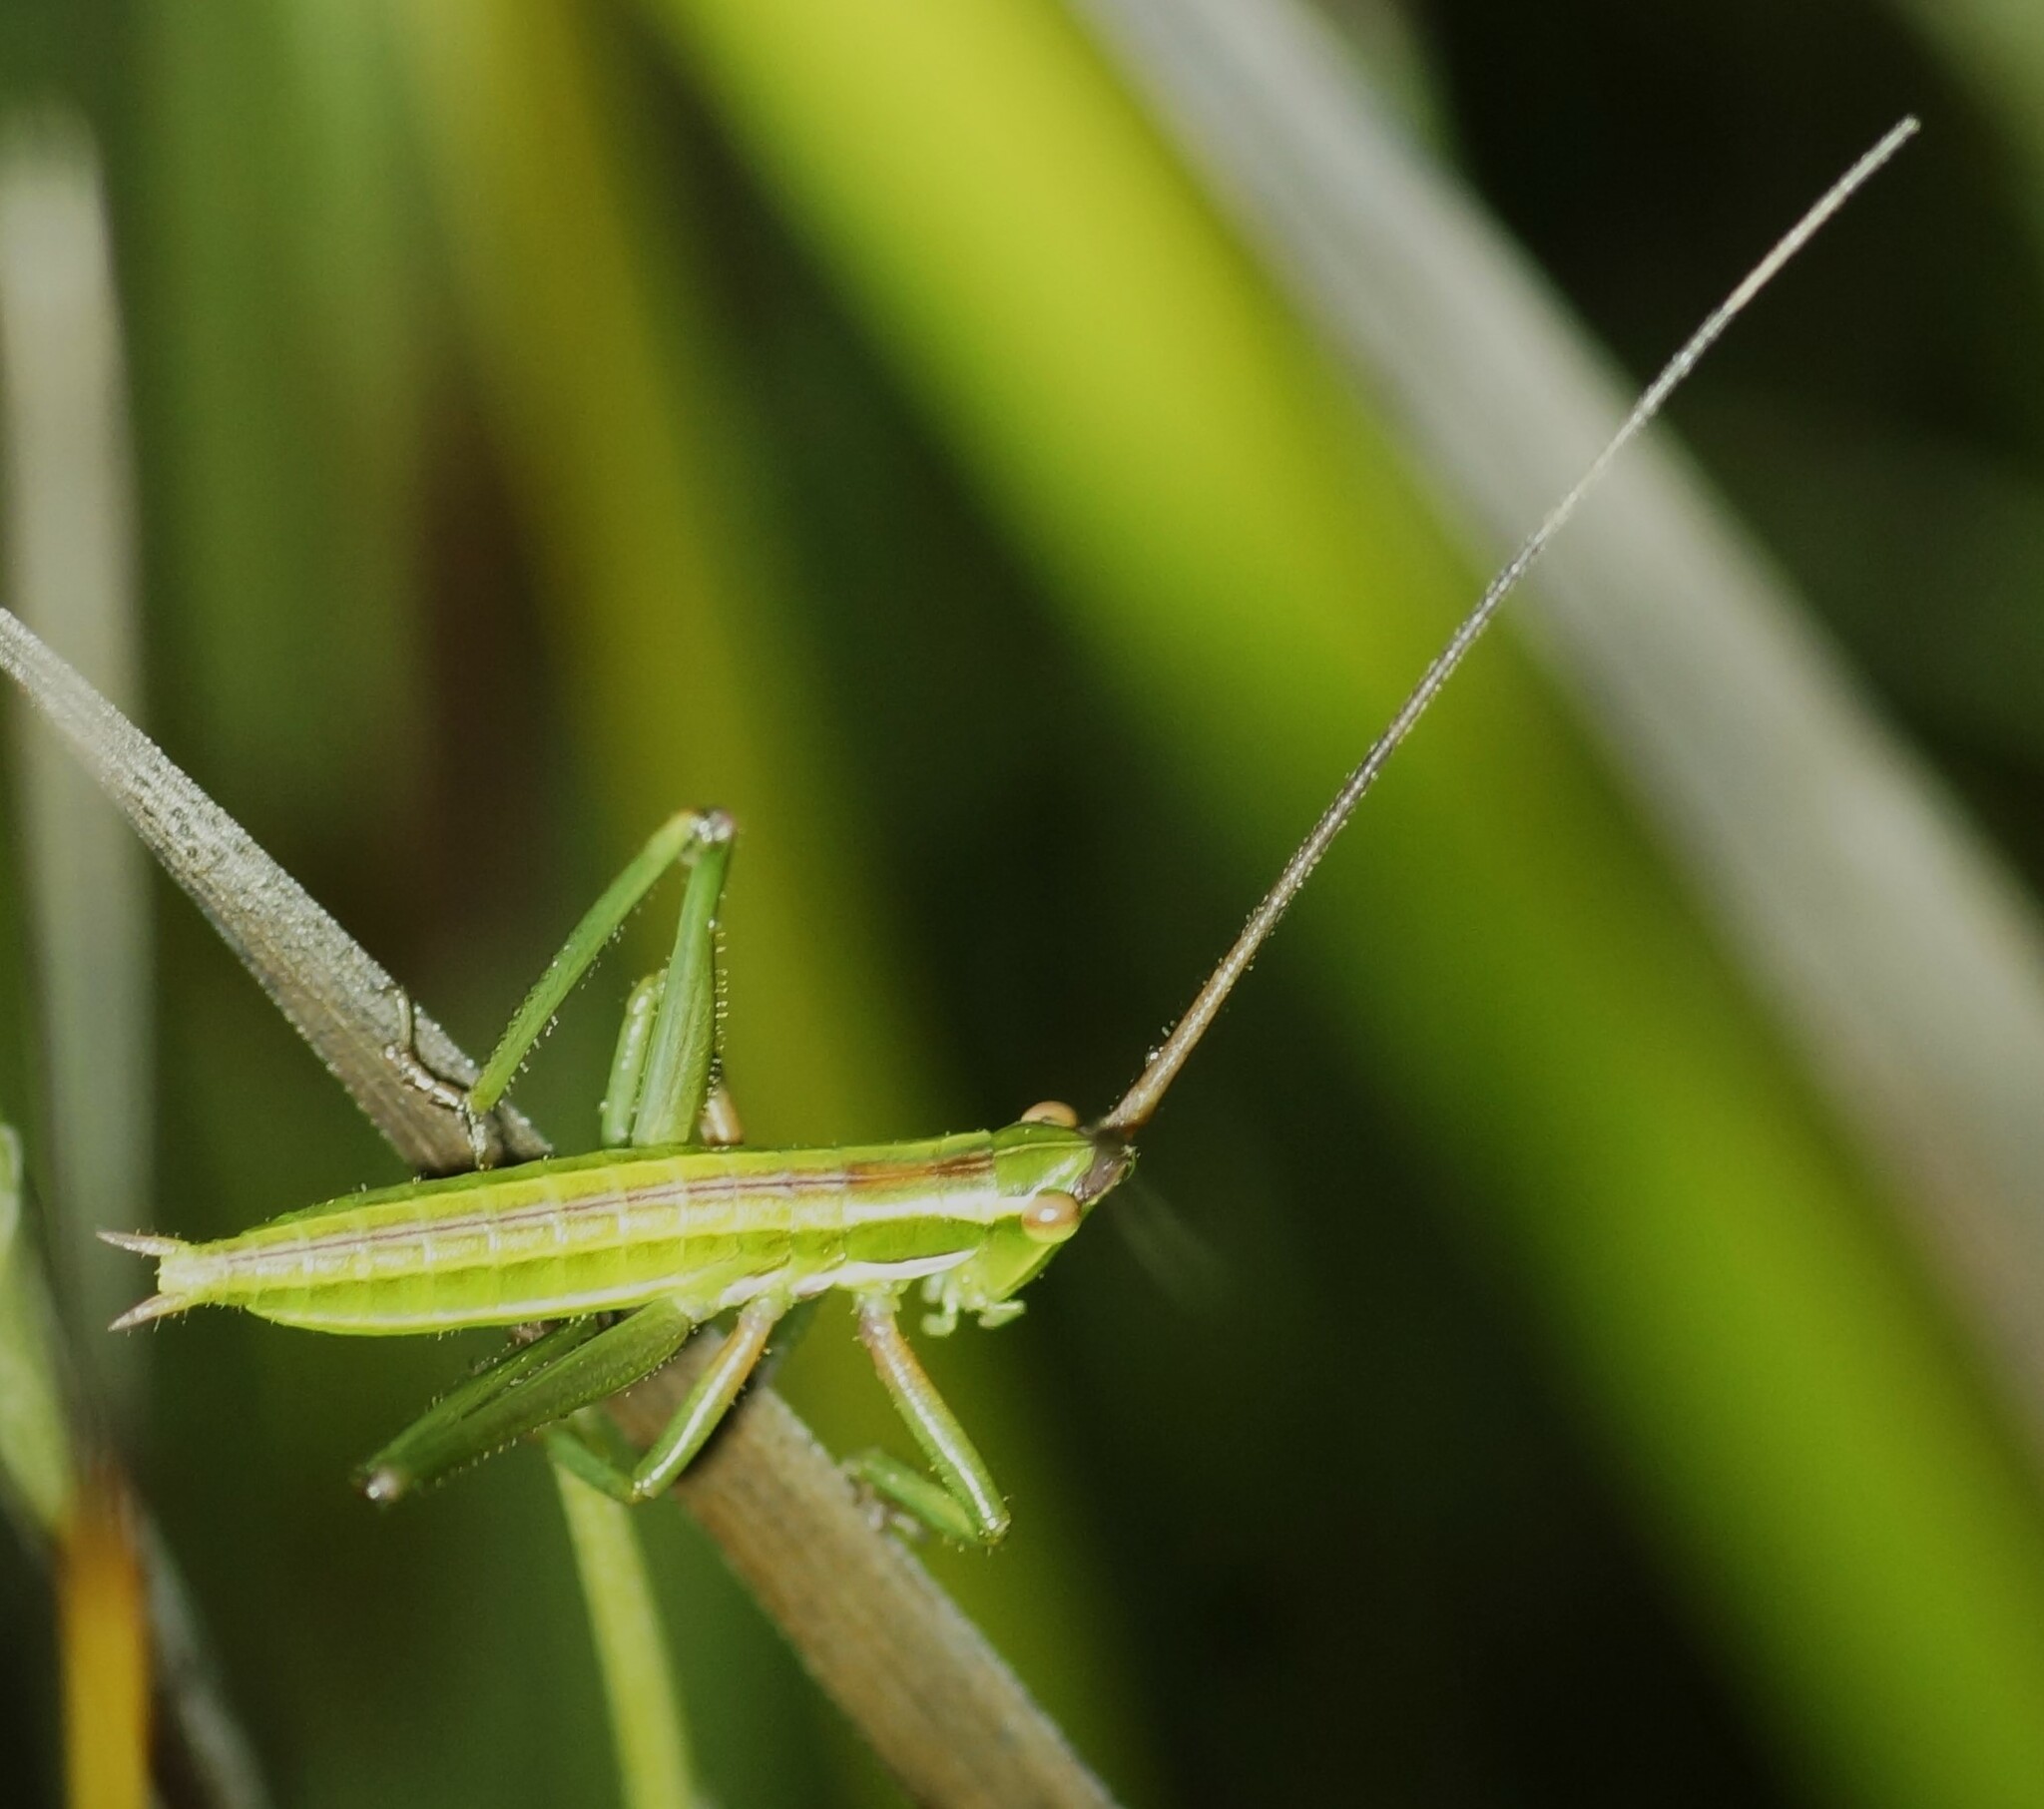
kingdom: Animalia
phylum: Arthropoda
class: Insecta
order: Orthoptera
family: Tettigoniidae
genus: Hemisaga
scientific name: Hemisaga lanceolata
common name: Victorian sluggish katydid
